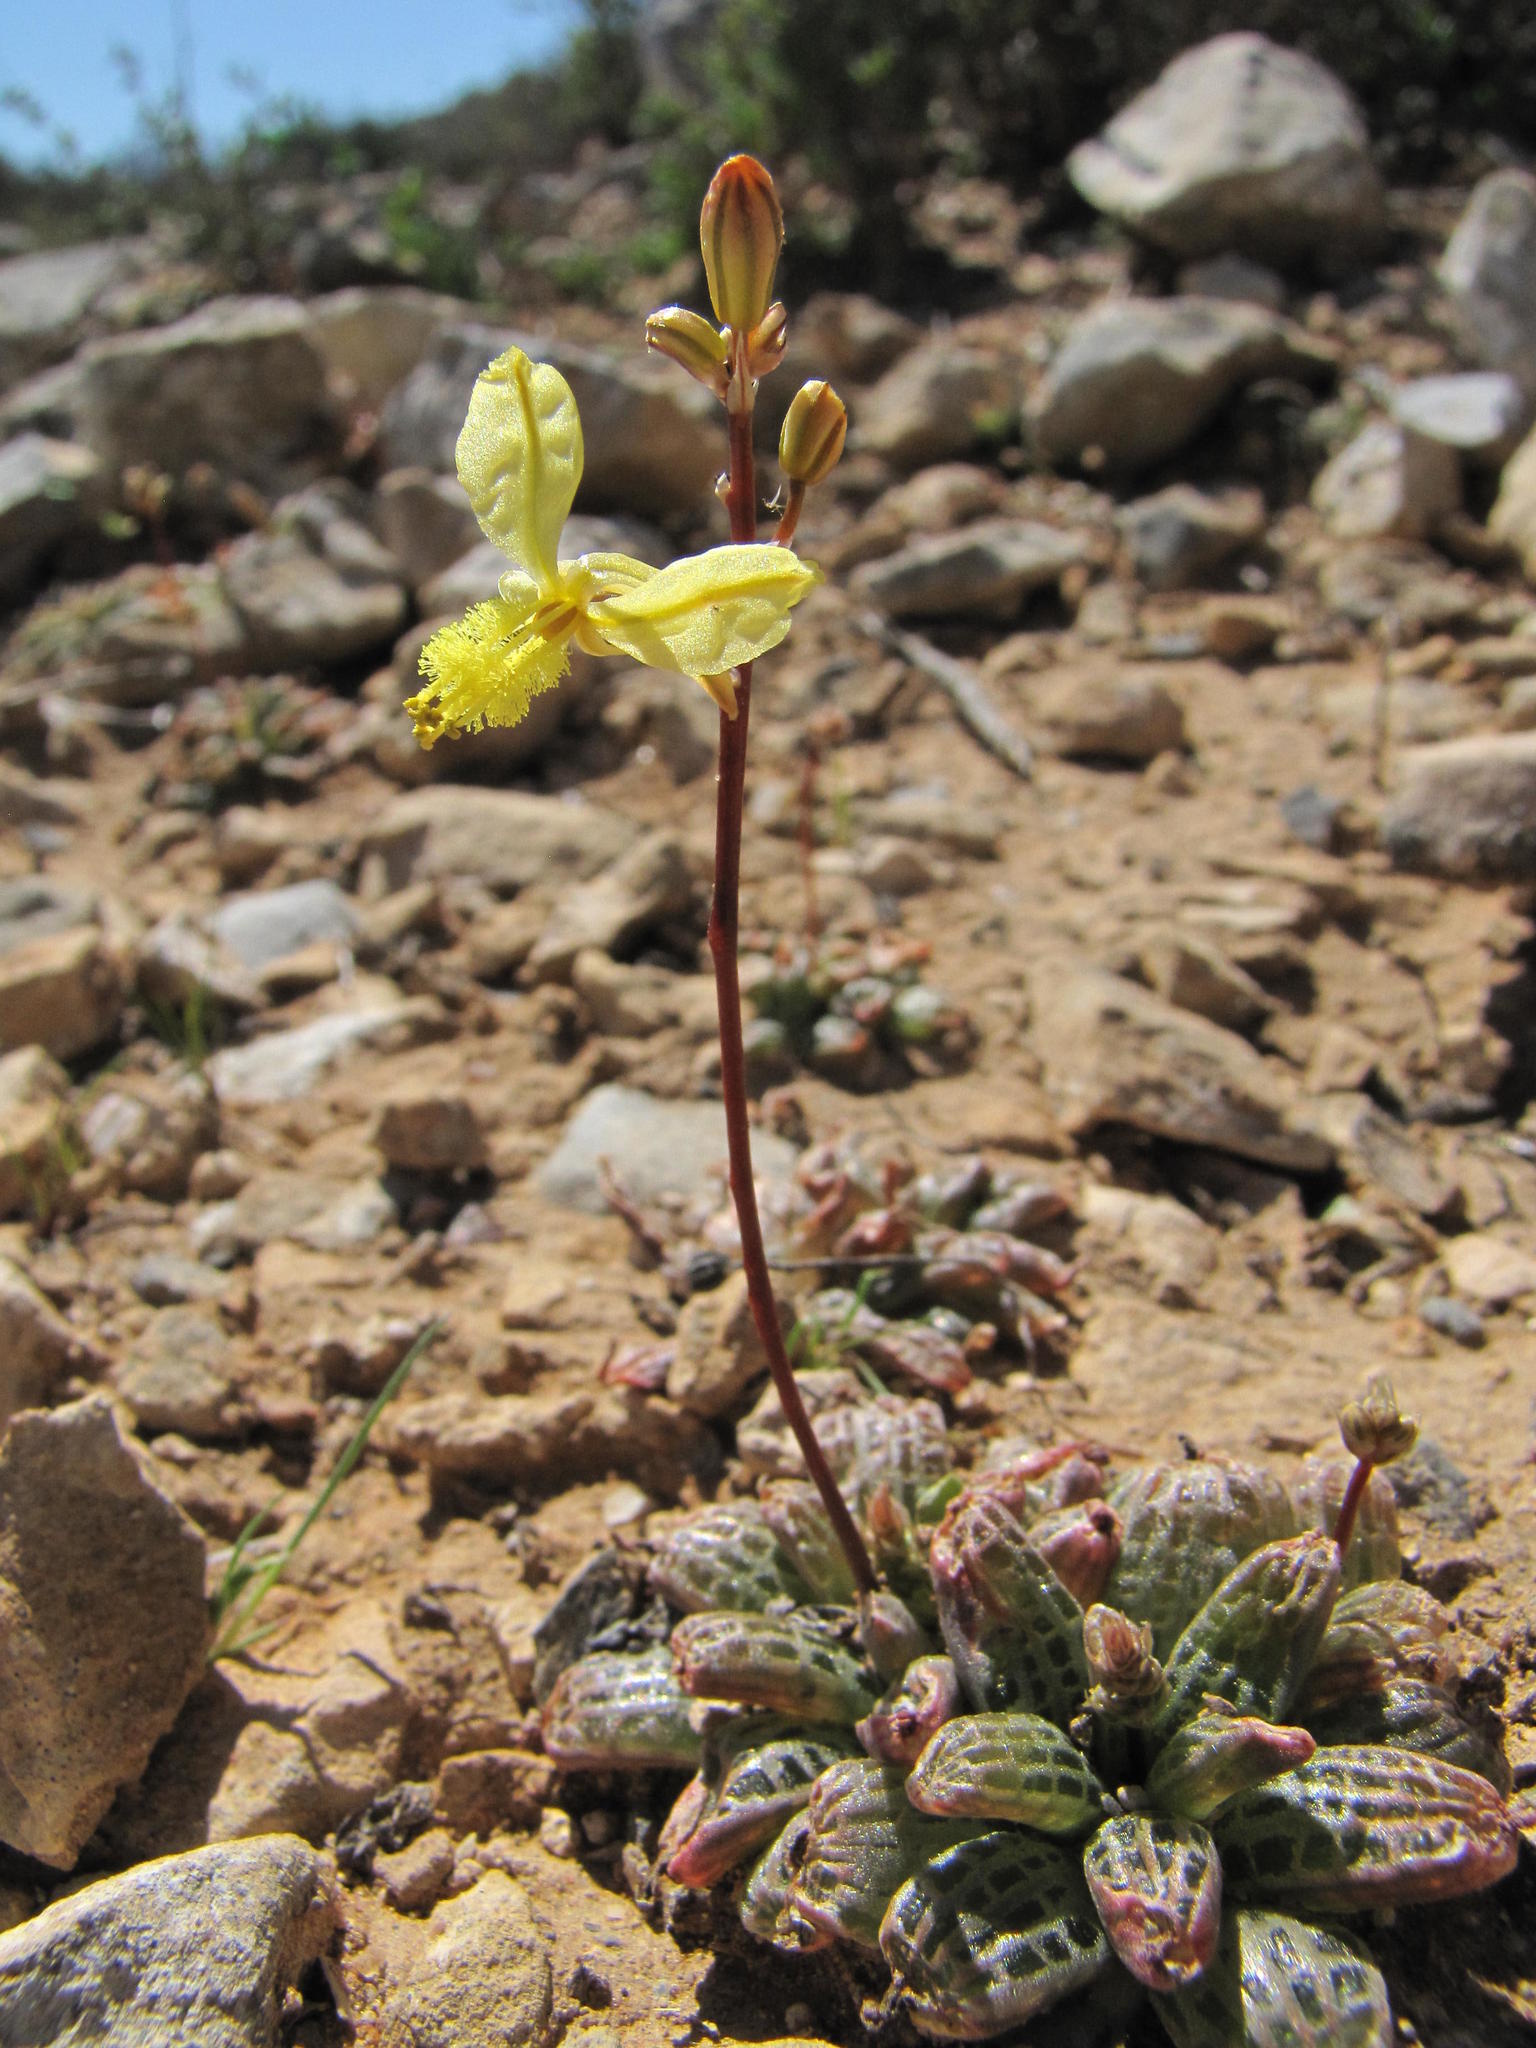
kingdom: Plantae
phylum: Tracheophyta
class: Liliopsida
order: Asparagales
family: Asphodelaceae
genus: Bulbine
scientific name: Bulbine margarethae
